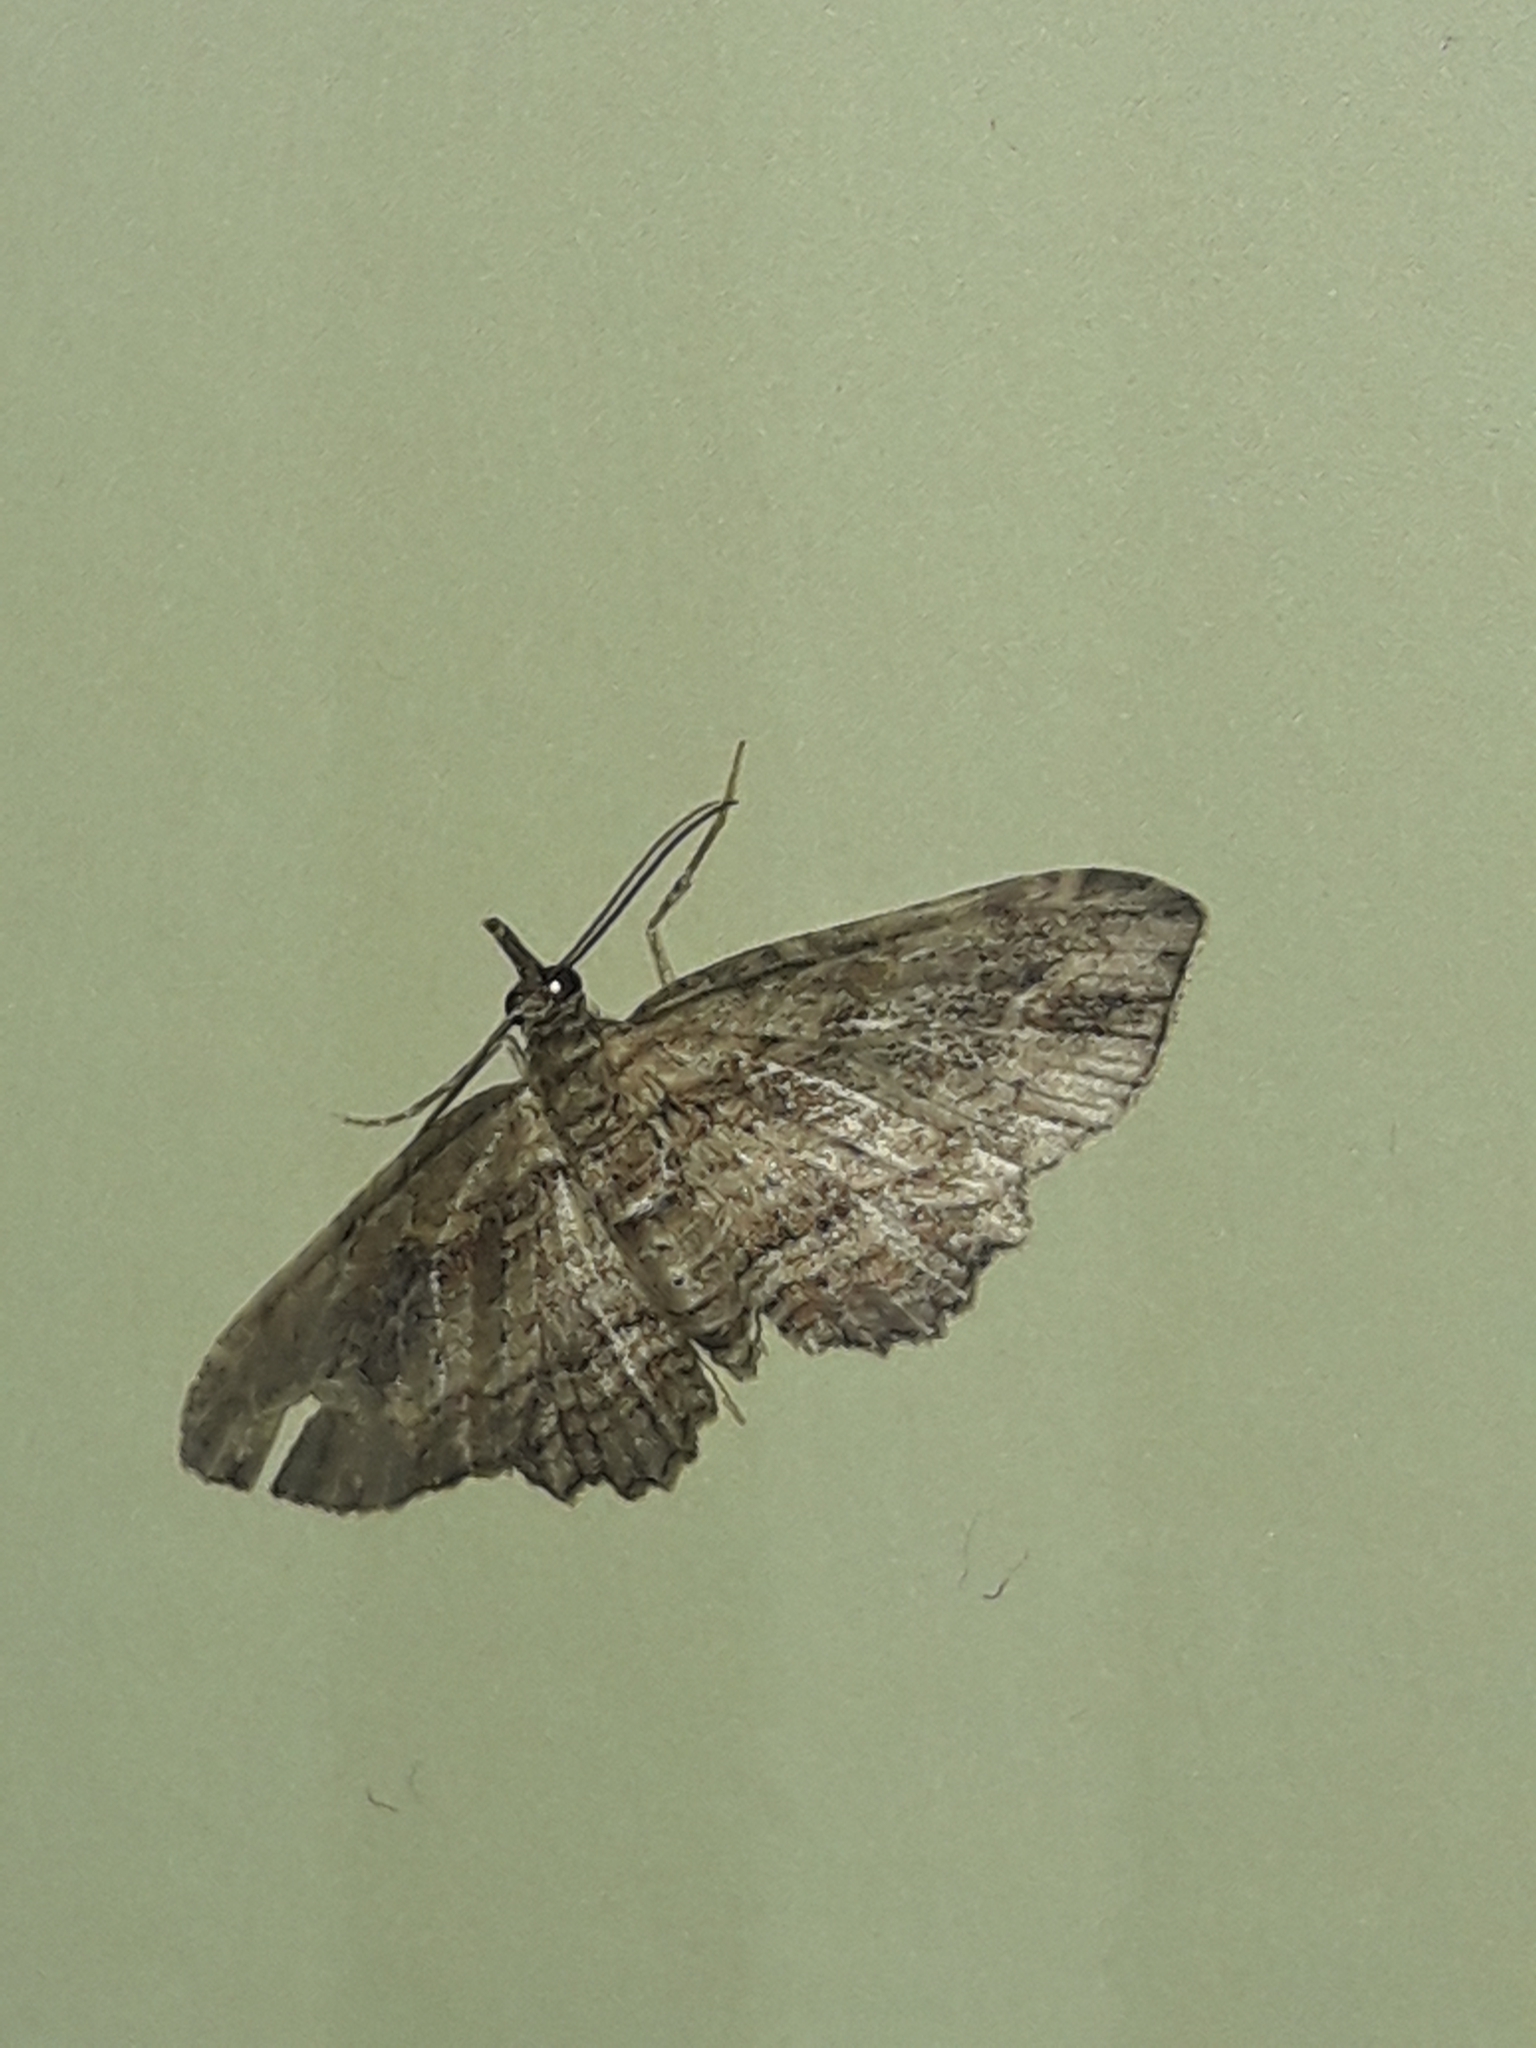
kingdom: Animalia
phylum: Arthropoda
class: Insecta
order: Lepidoptera
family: Geometridae
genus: Chloroclystis
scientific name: Chloroclystis filata
